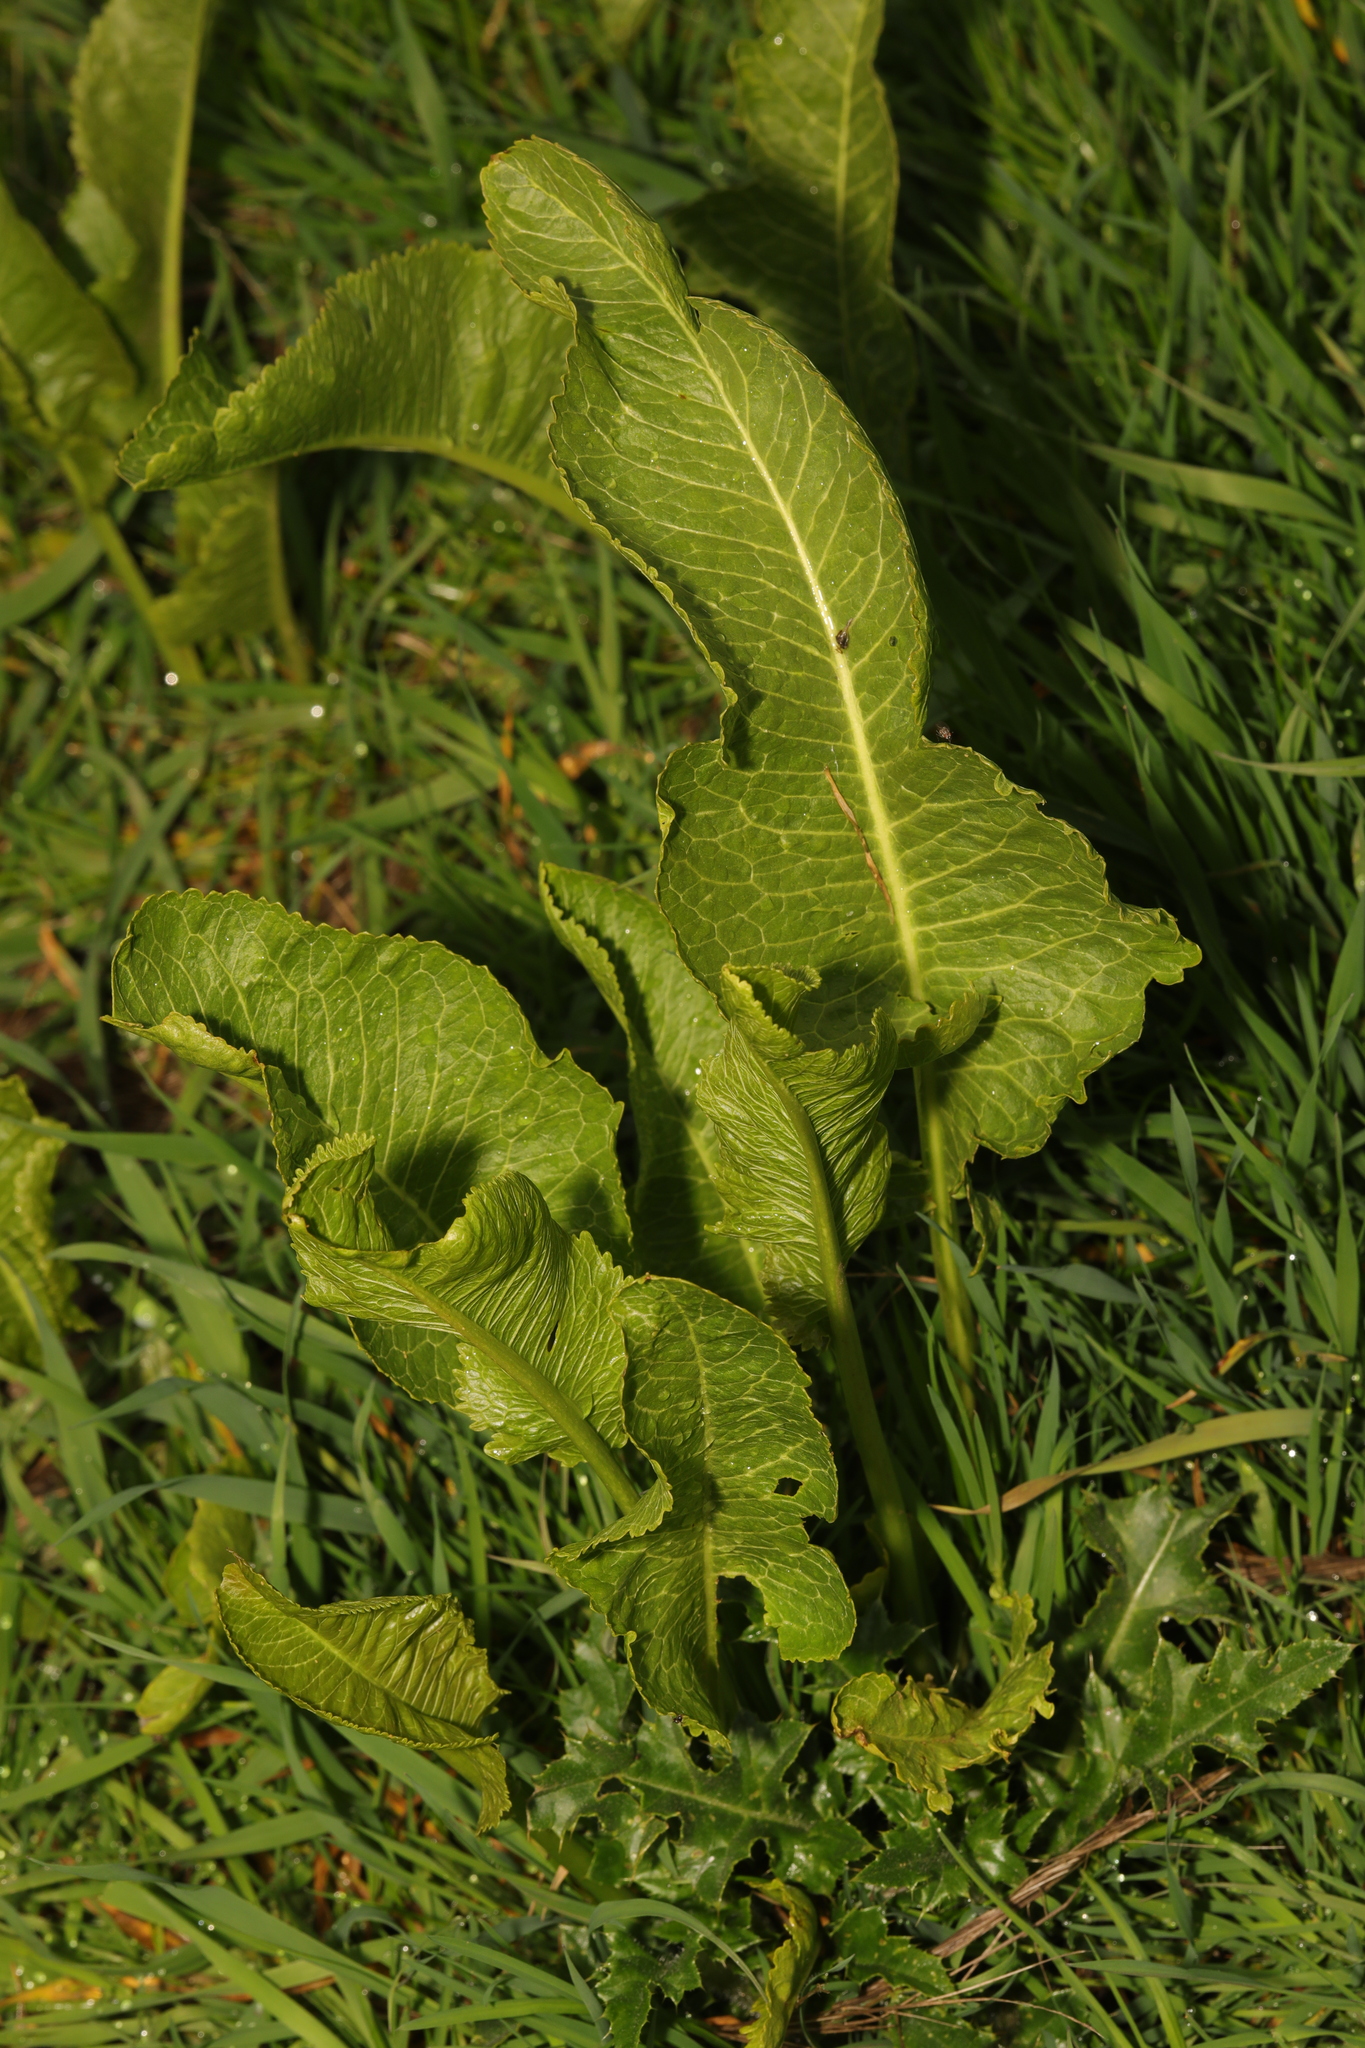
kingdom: Plantae
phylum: Tracheophyta
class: Magnoliopsida
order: Brassicales
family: Brassicaceae
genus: Armoracia
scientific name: Armoracia rusticana
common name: Horseradish
